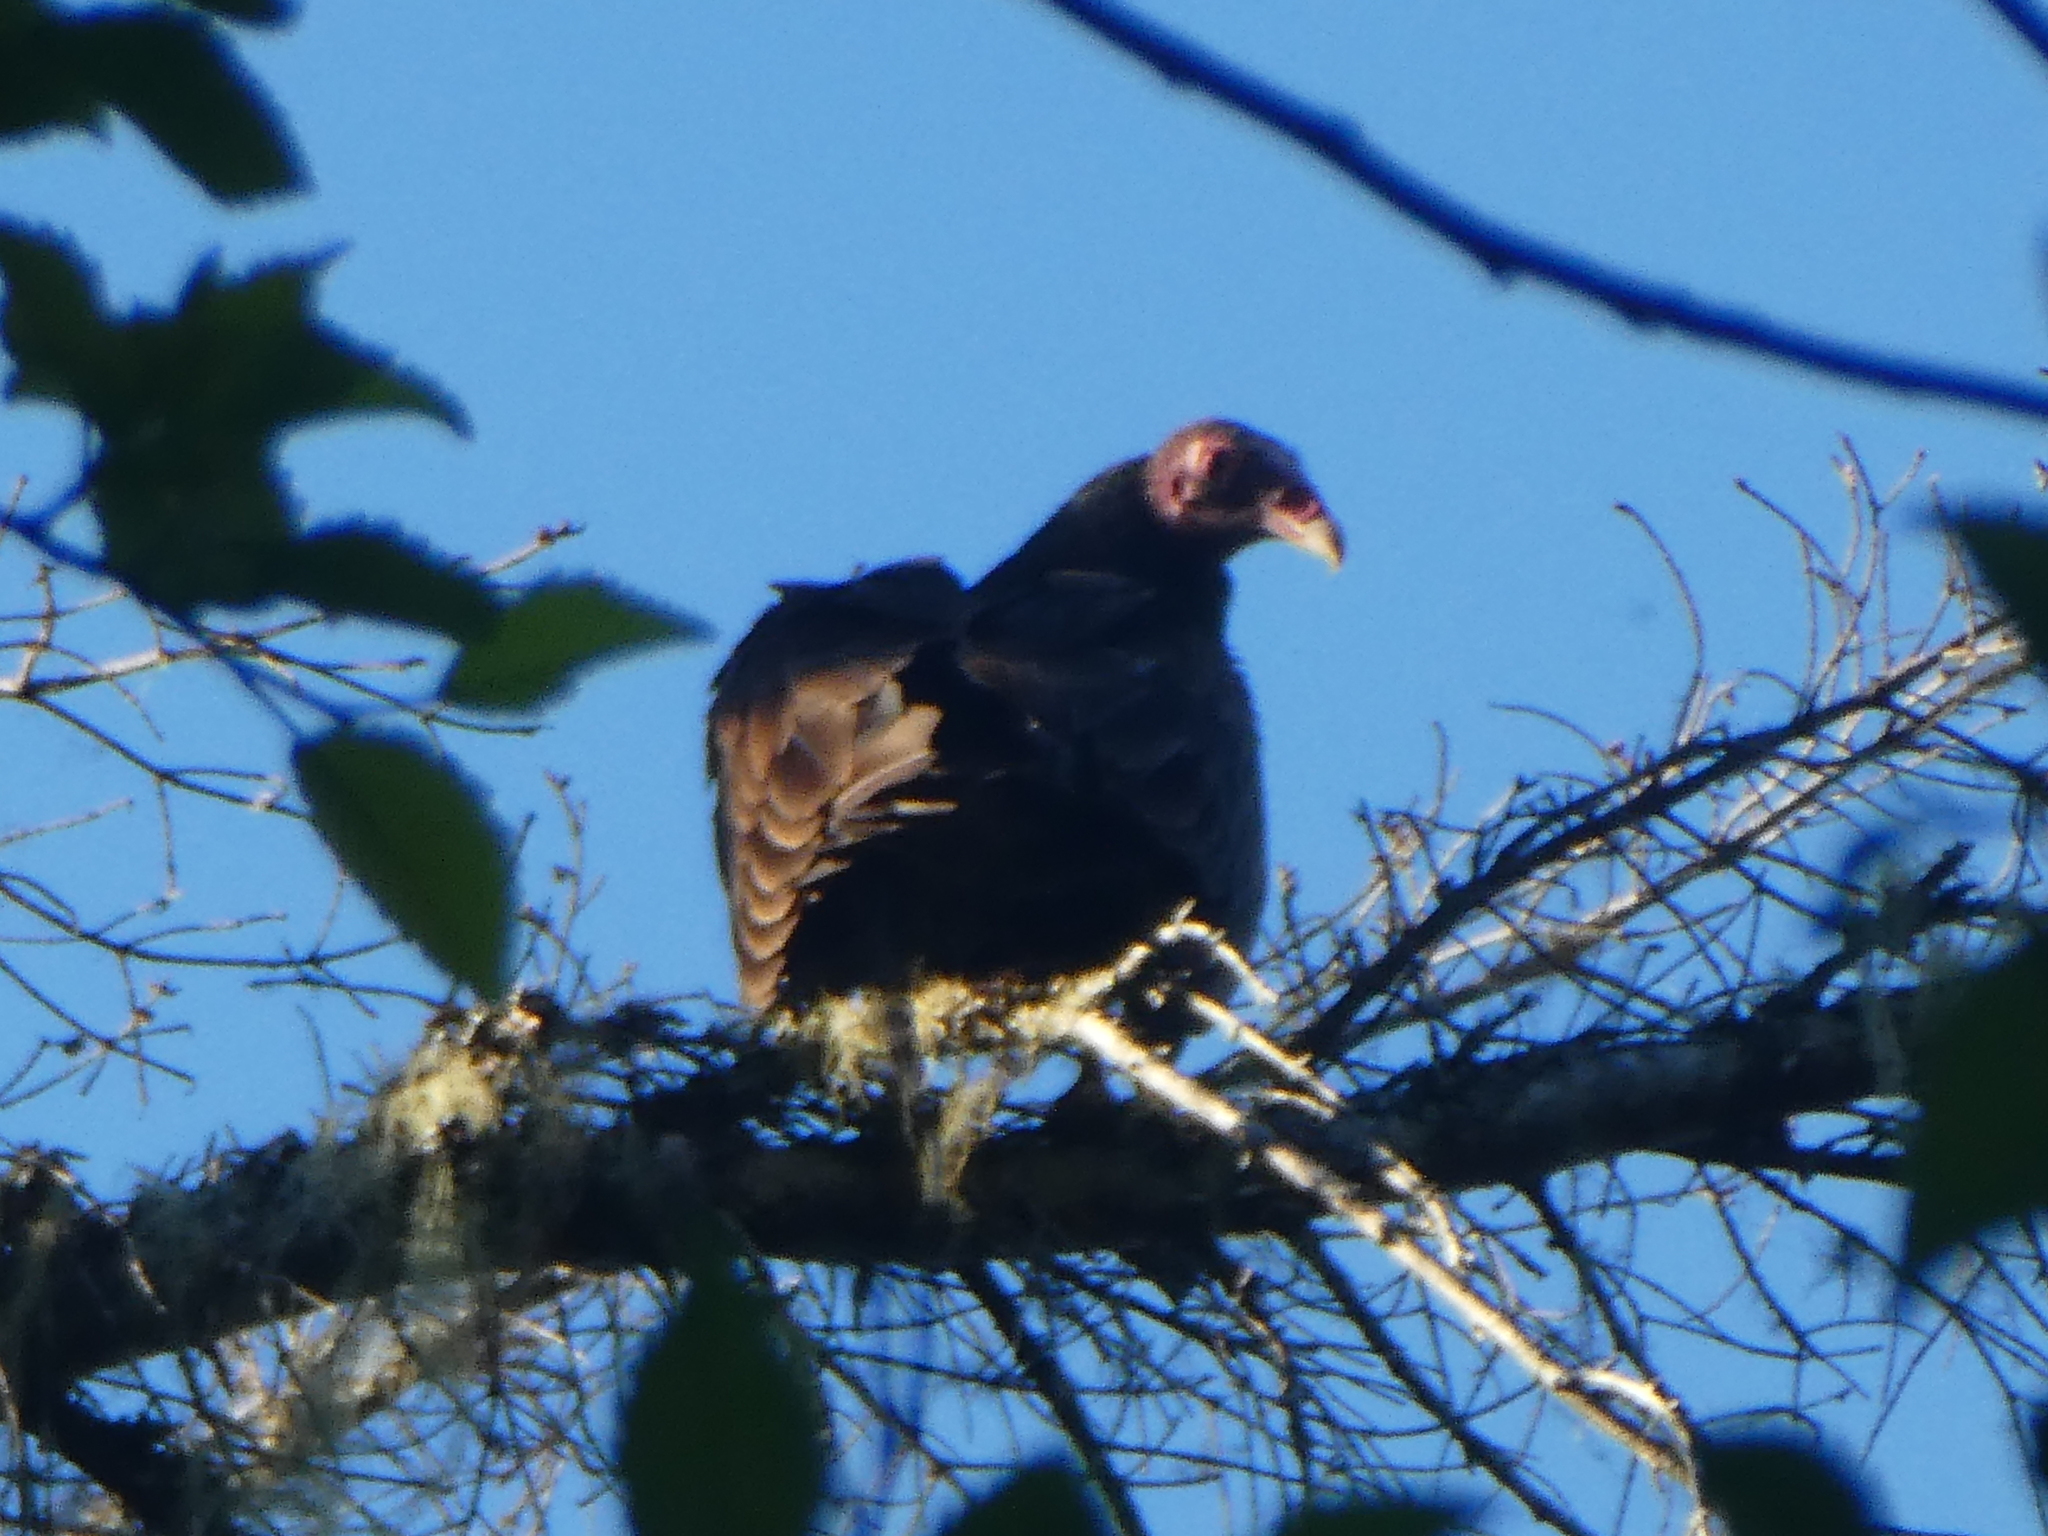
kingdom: Animalia
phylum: Chordata
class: Aves
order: Accipitriformes
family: Cathartidae
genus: Cathartes
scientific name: Cathartes aura
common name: Turkey vulture
